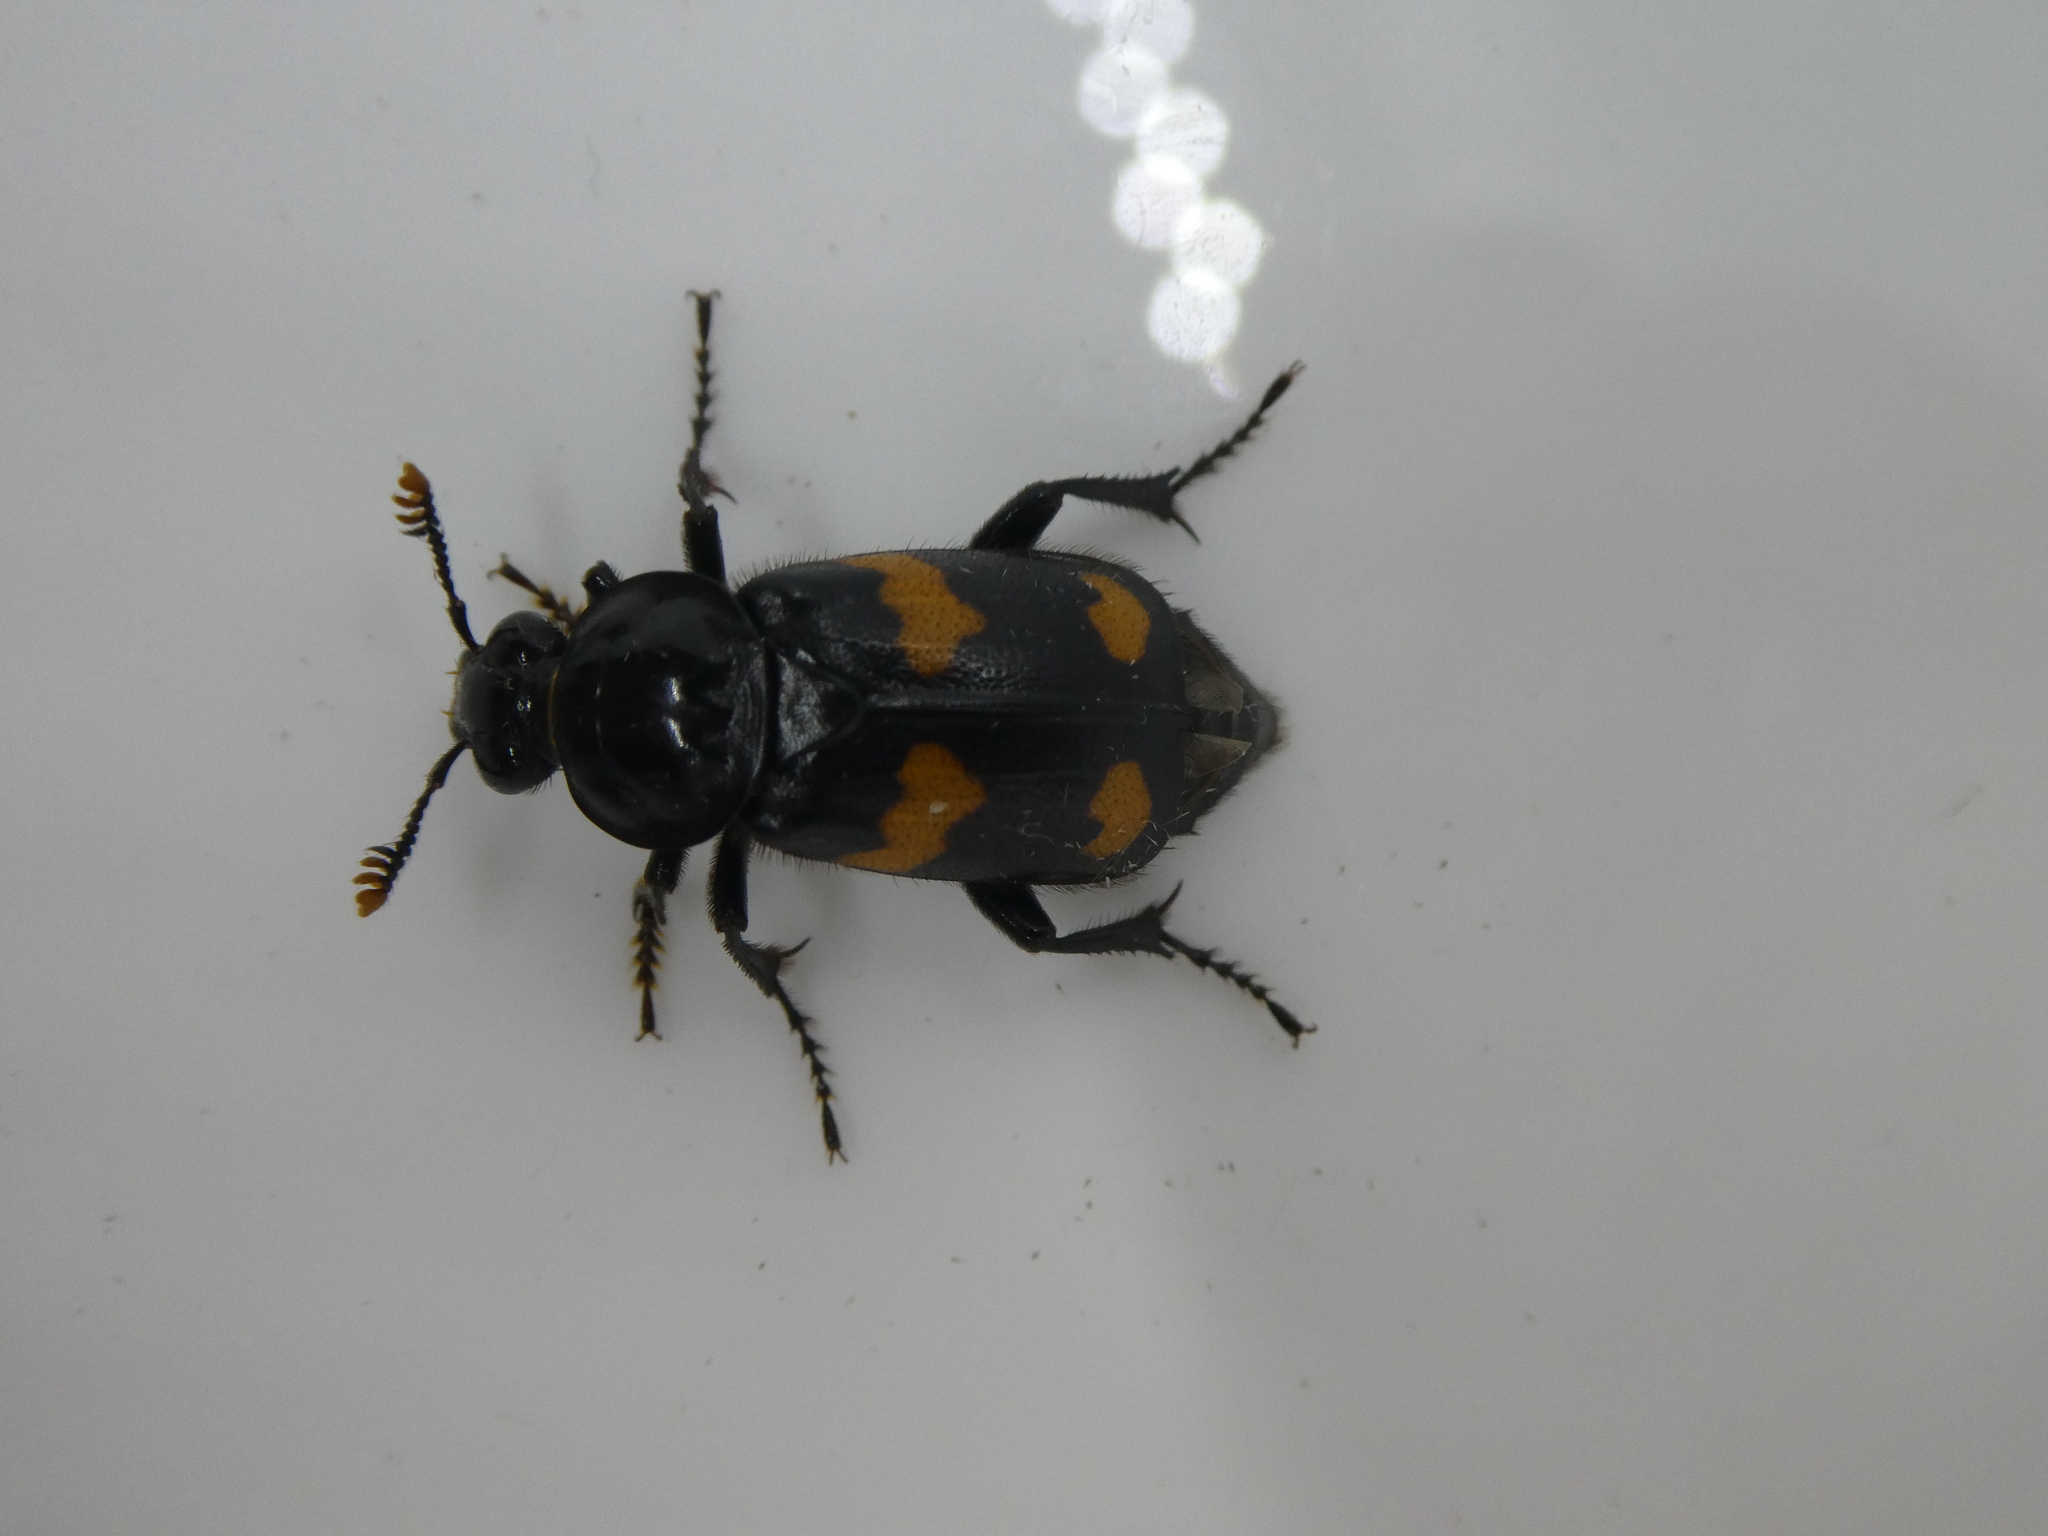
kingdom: Animalia
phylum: Arthropoda
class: Insecta
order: Coleoptera
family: Staphylinidae
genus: Nicrophorus
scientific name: Nicrophorus orbicollis
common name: Roundneck sexton beetle
